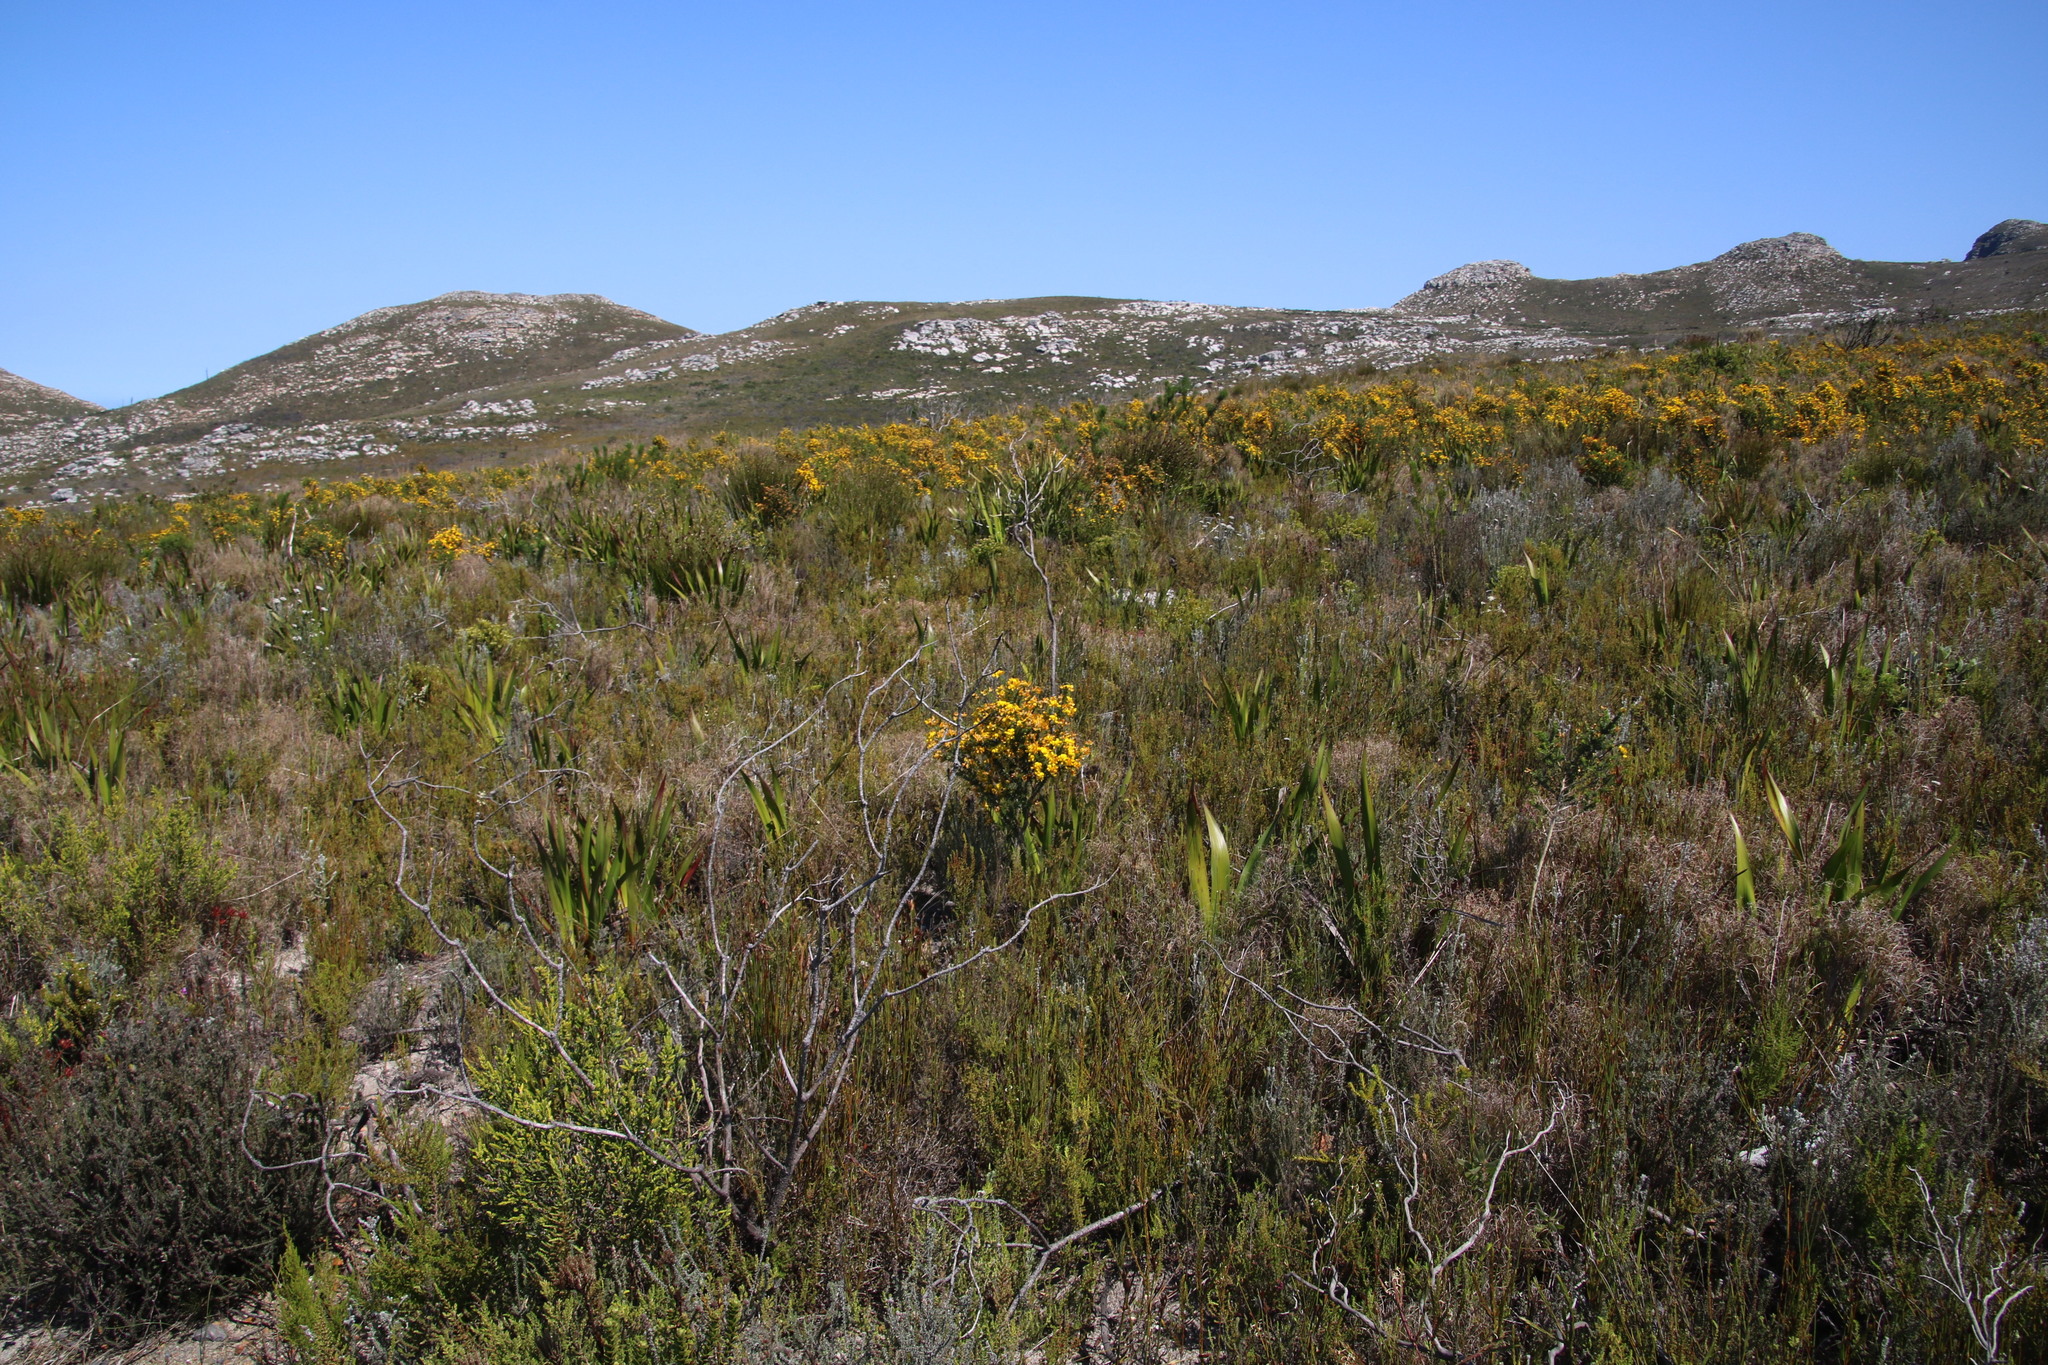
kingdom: Plantae
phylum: Tracheophyta
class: Magnoliopsida
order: Fabales
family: Fabaceae
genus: Aspalathus
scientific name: Aspalathus carnosa
